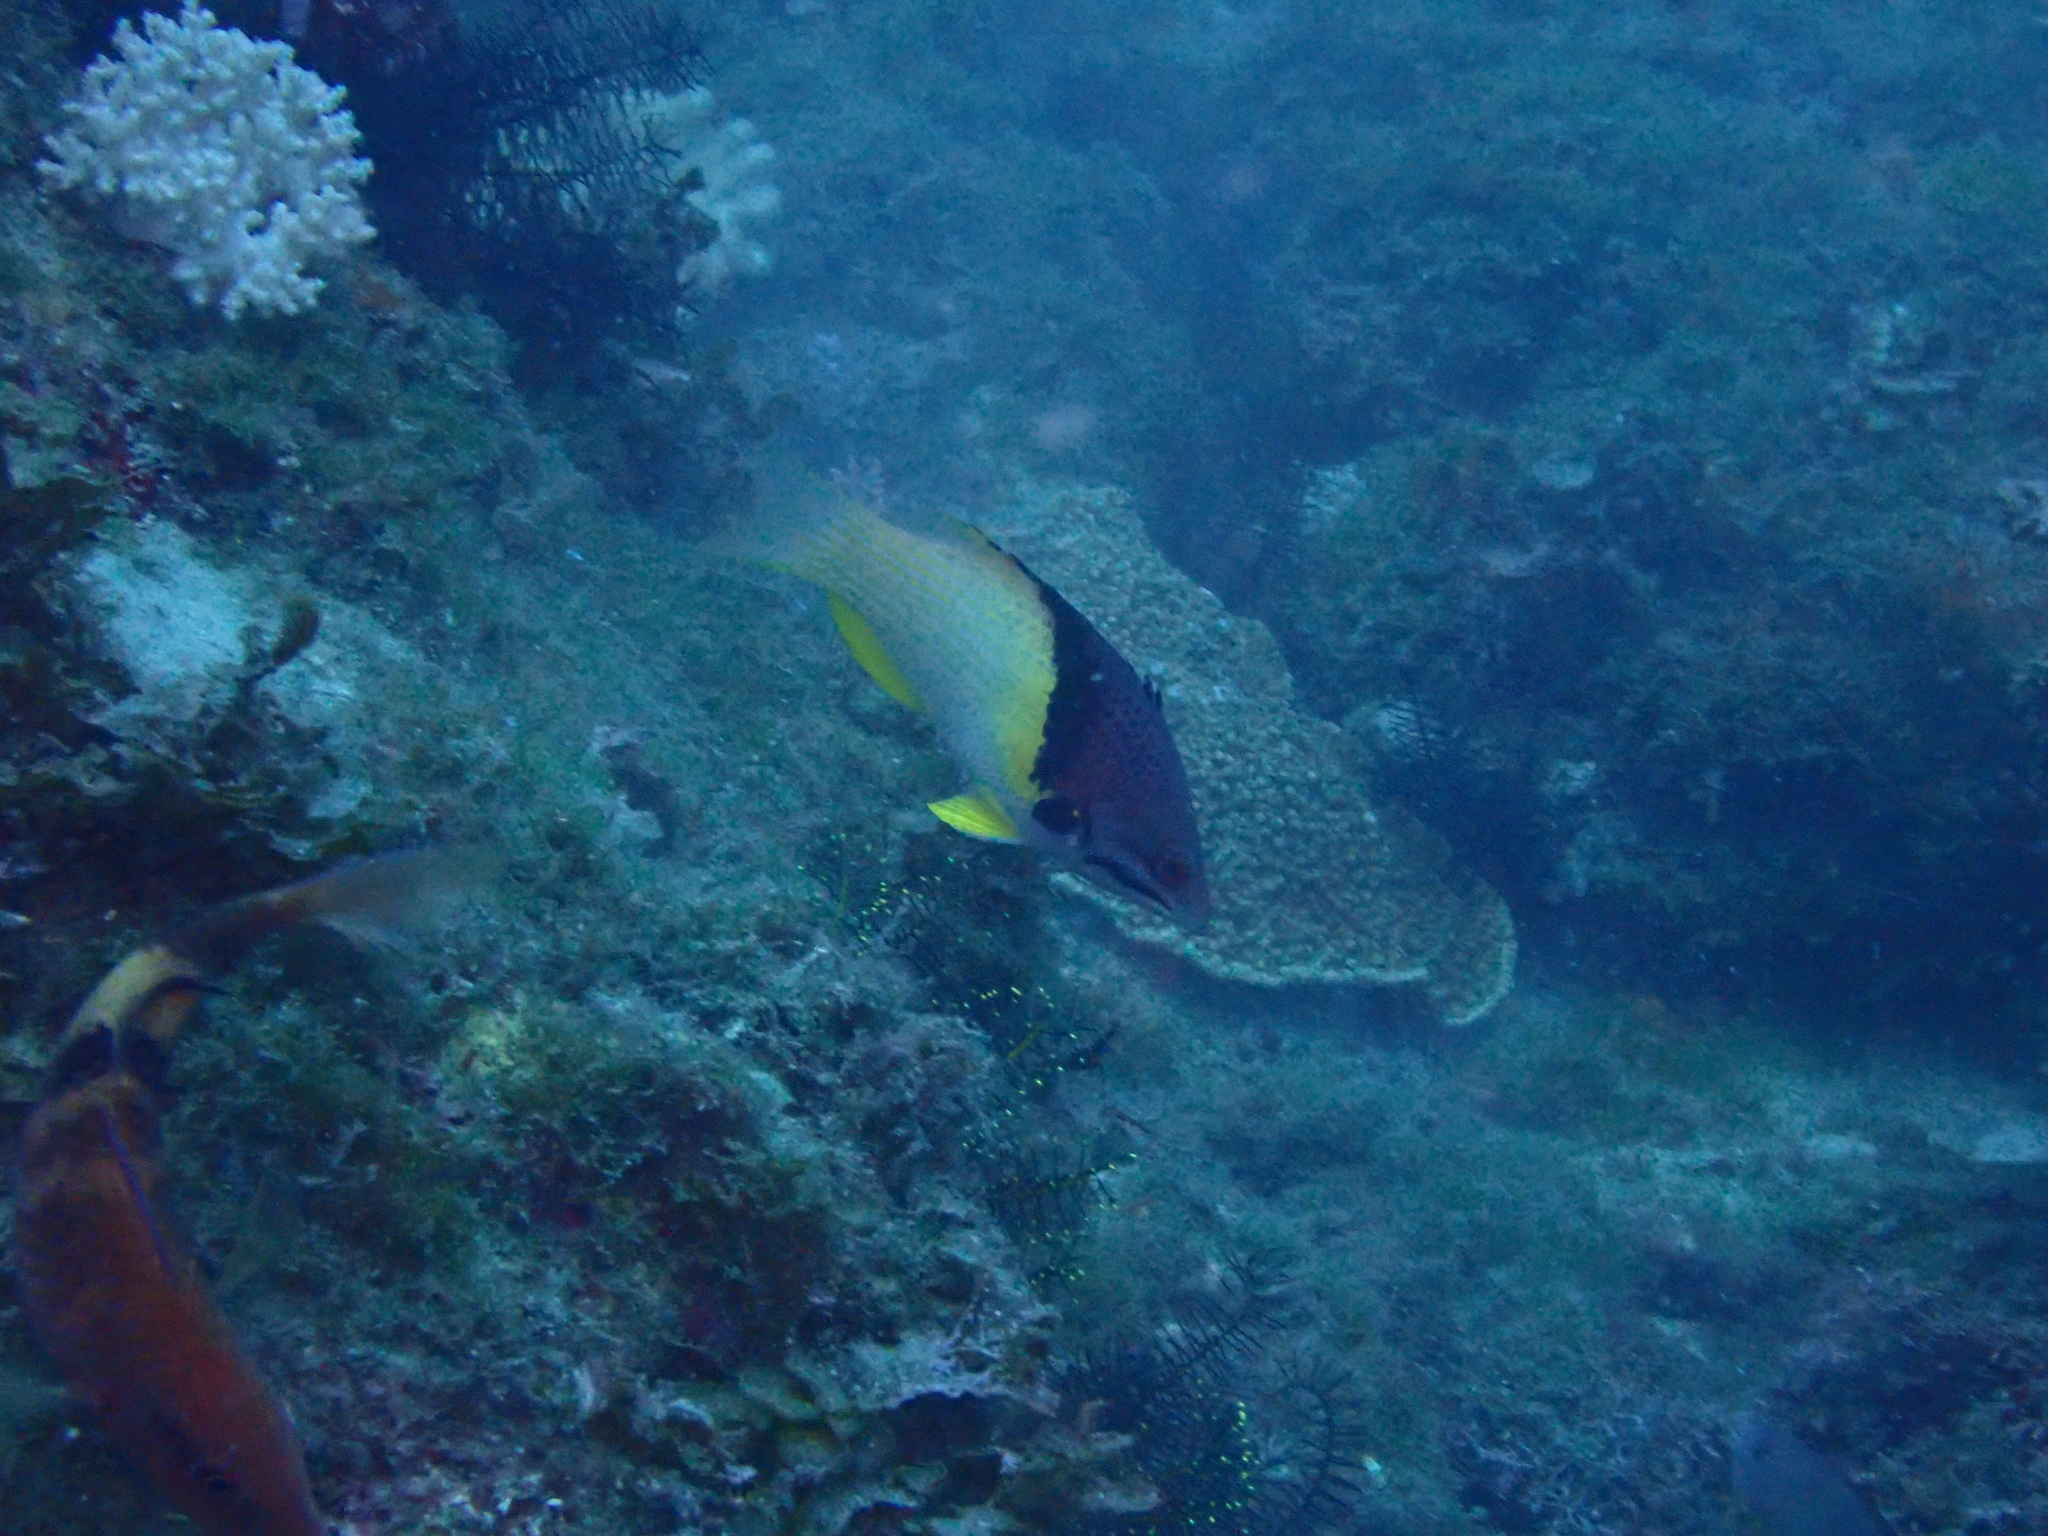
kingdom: Animalia
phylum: Chordata
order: Perciformes
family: Labridae
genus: Bodianus
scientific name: Bodianus mesothorax
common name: Coral hogfish
